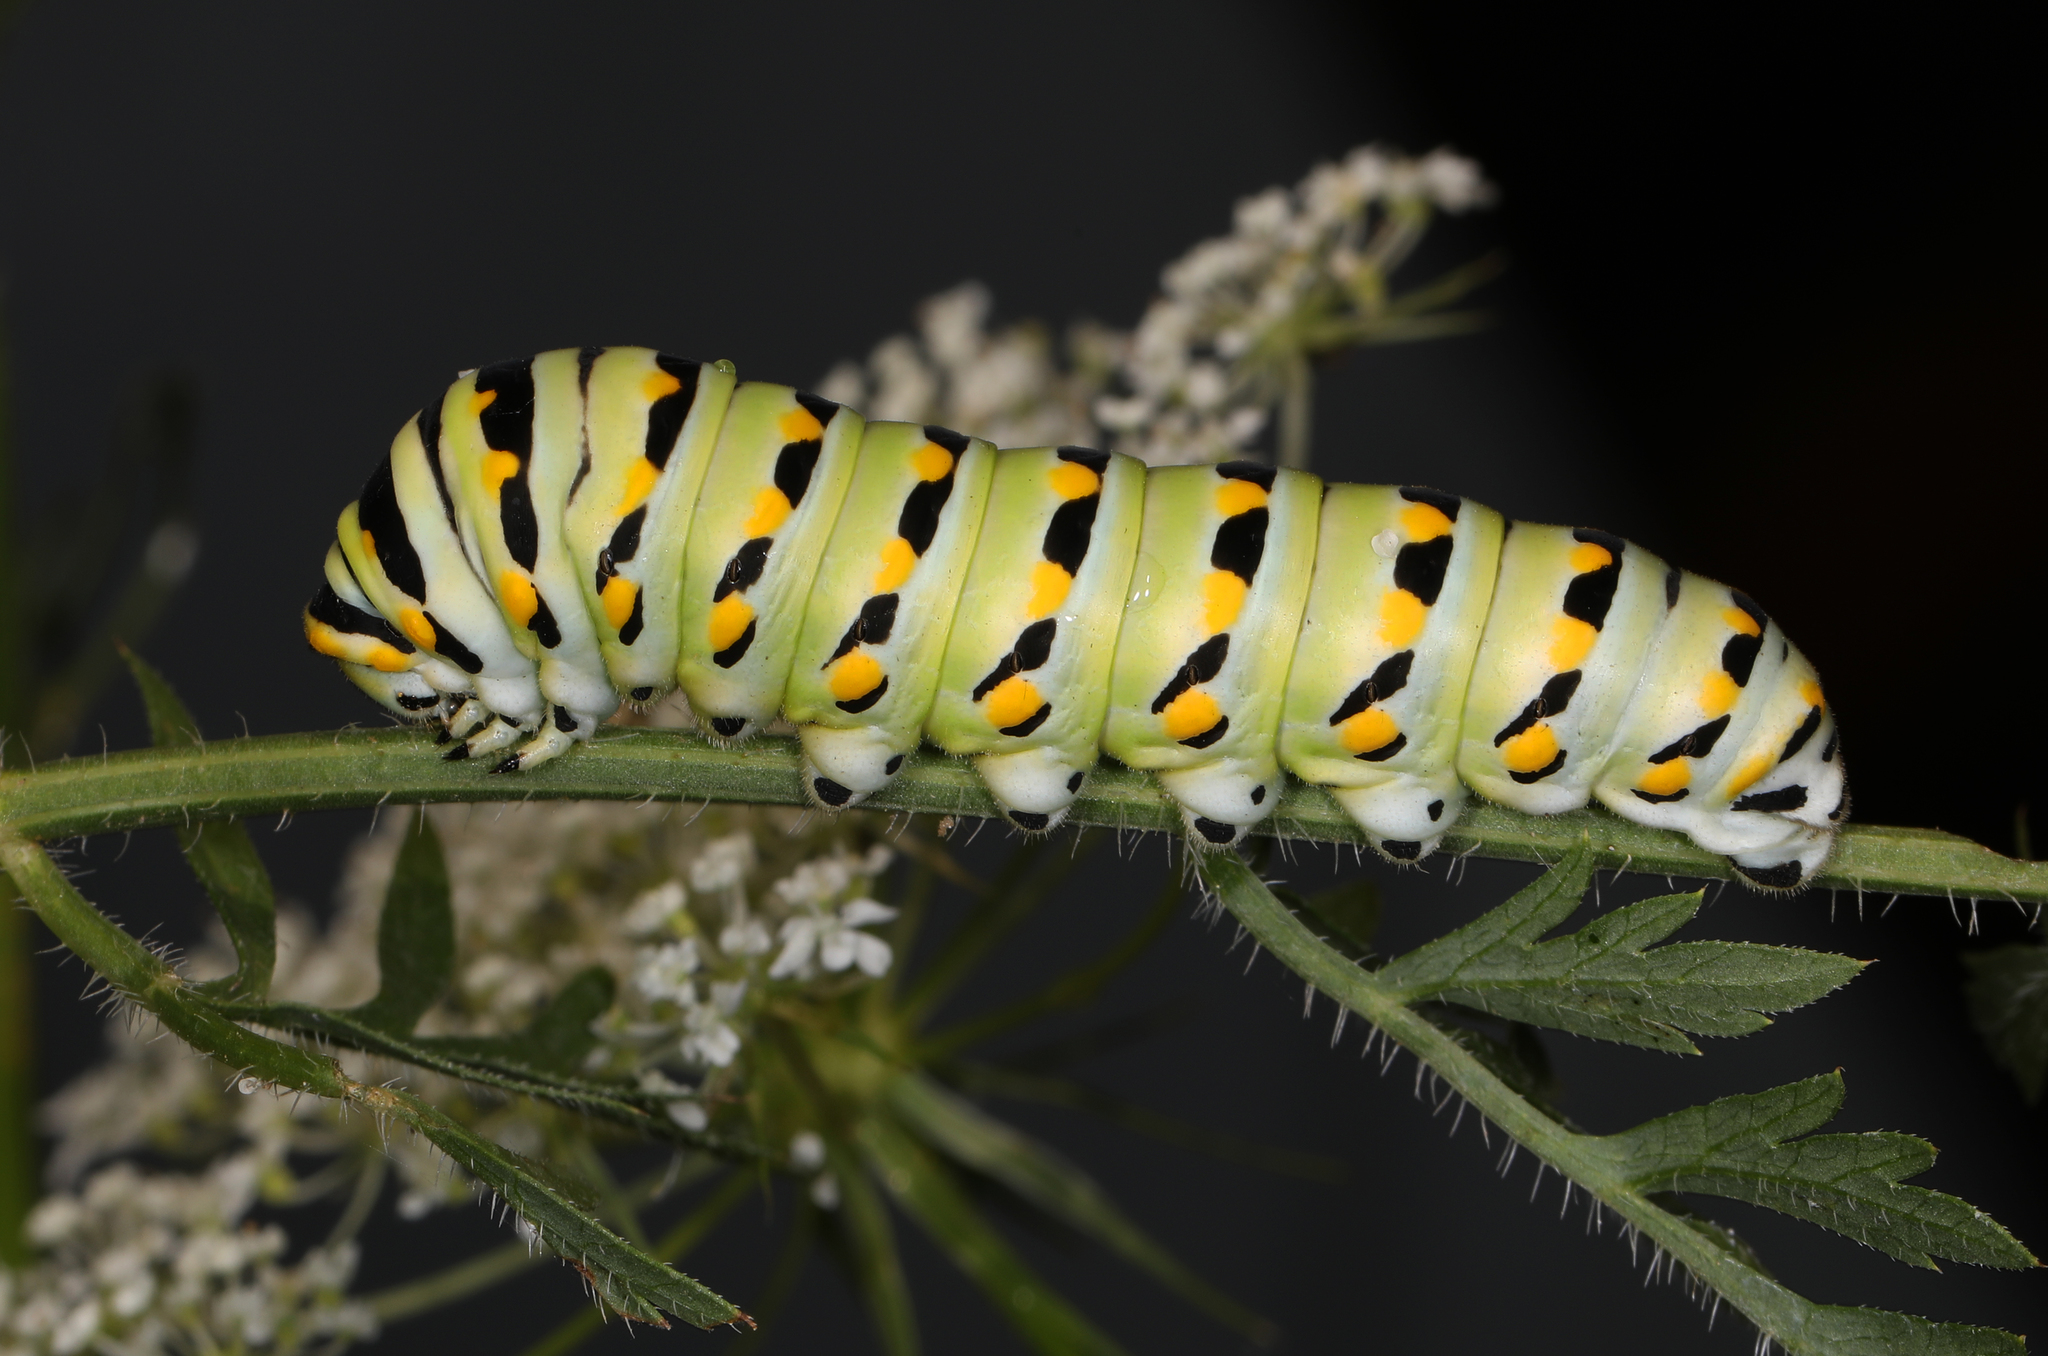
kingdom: Animalia
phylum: Arthropoda
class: Insecta
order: Lepidoptera
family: Papilionidae
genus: Papilio
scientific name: Papilio polyxenes
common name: Black swallowtail
